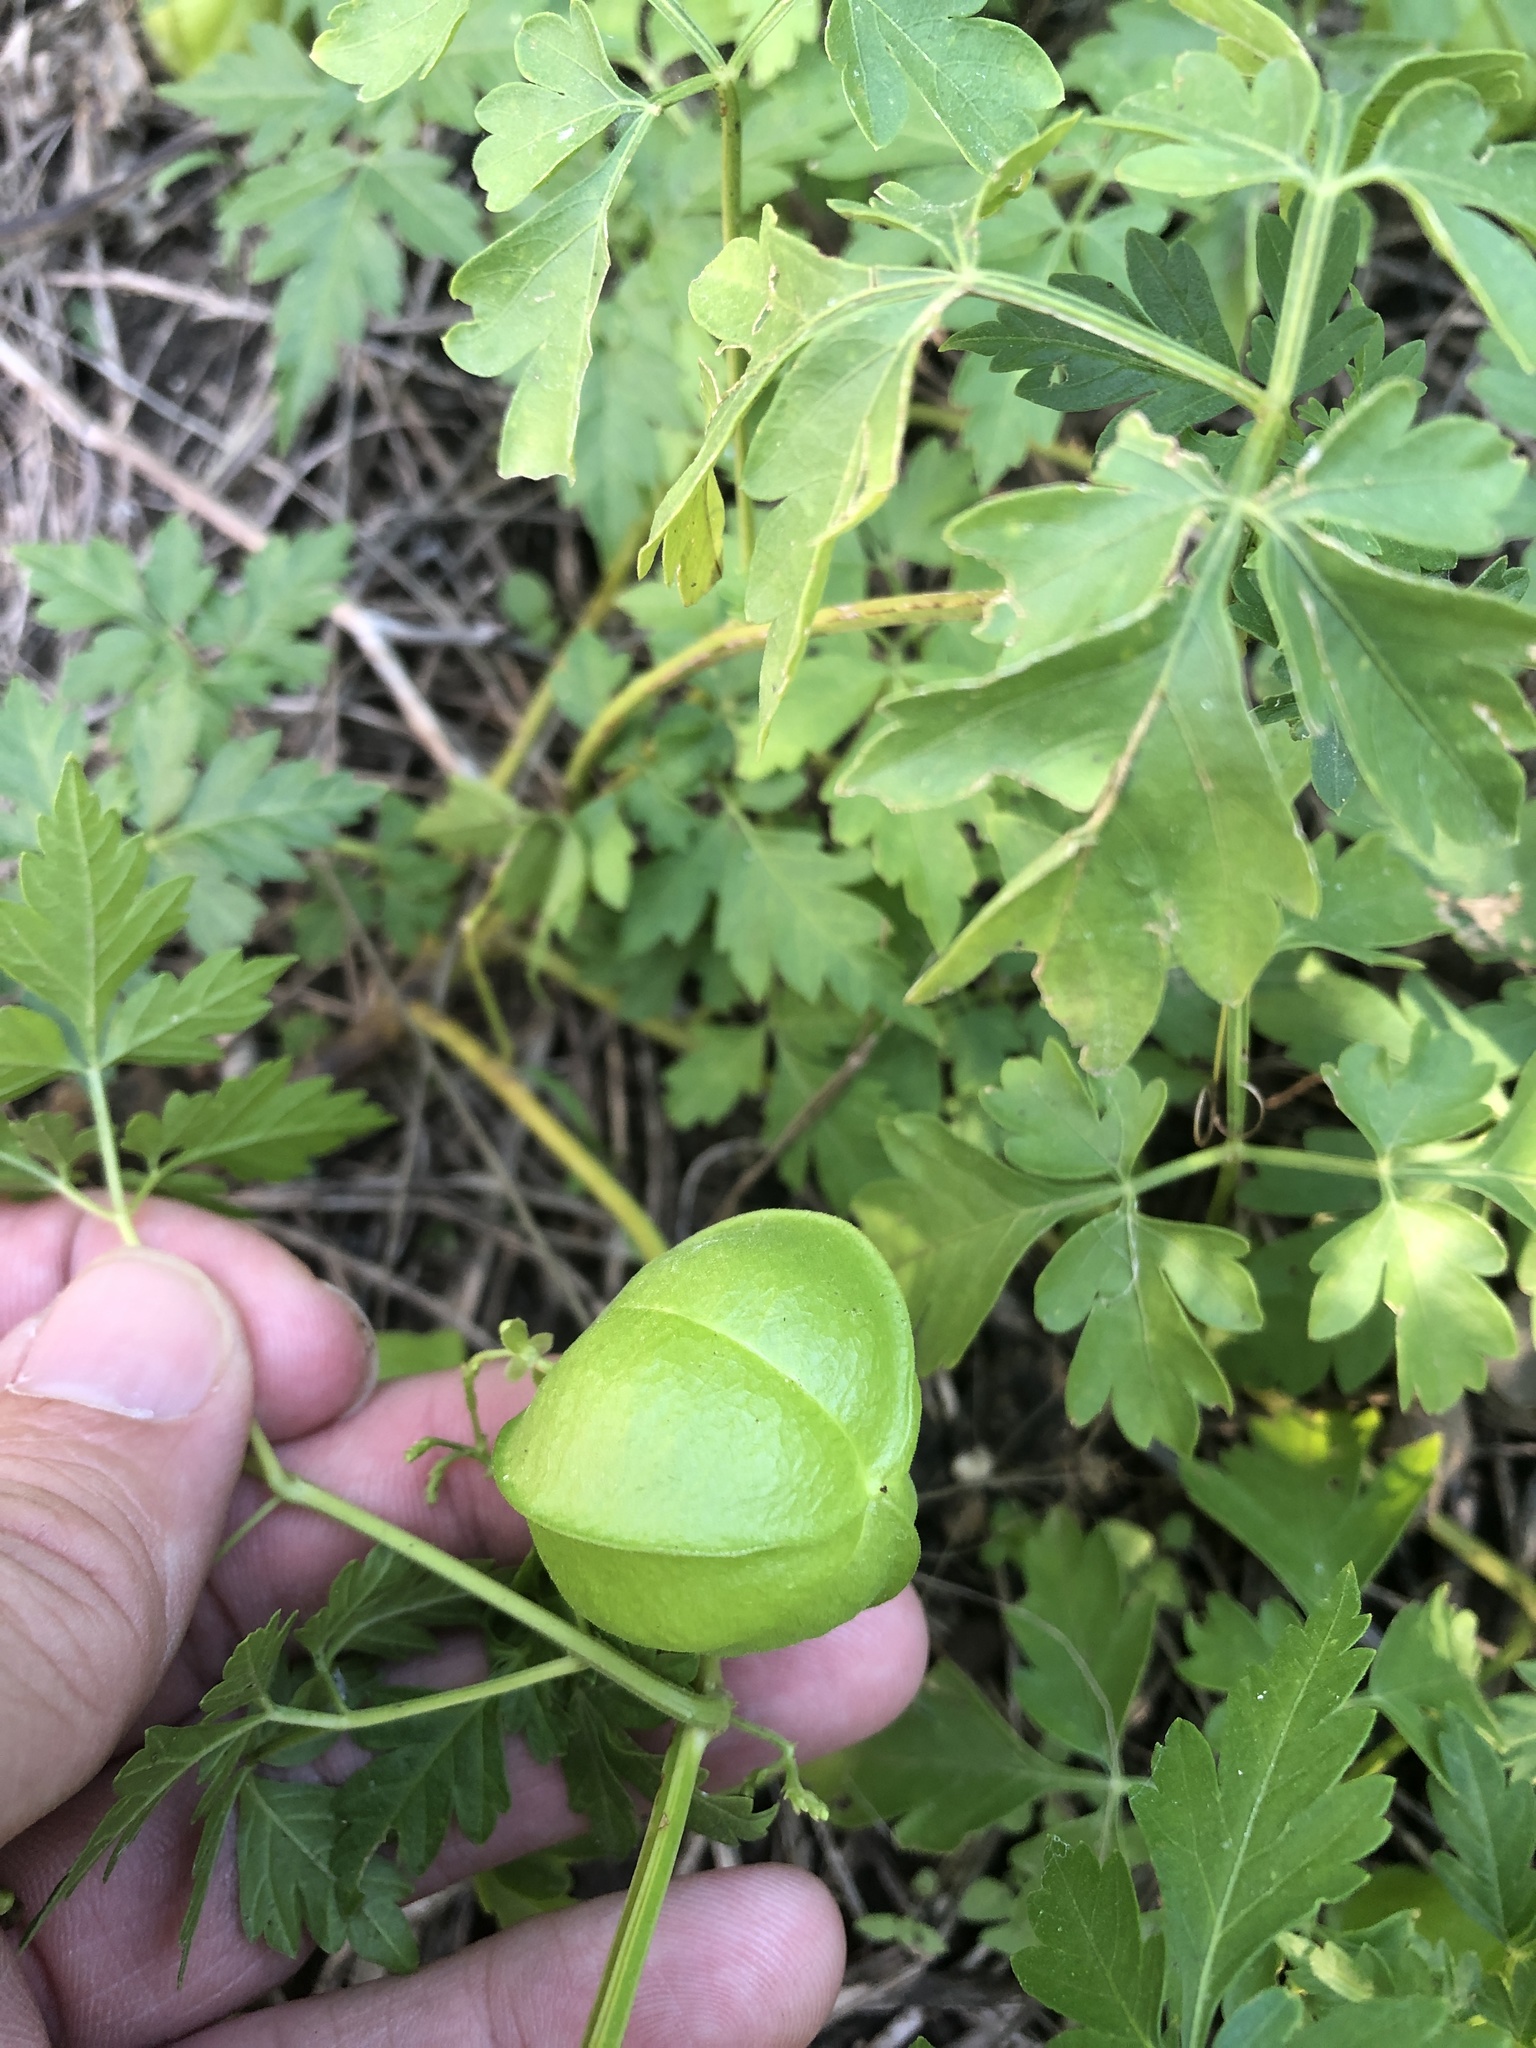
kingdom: Plantae
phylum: Tracheophyta
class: Magnoliopsida
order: Sapindales
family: Sapindaceae
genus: Cardiospermum
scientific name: Cardiospermum halicacabum
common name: Balloon vine
